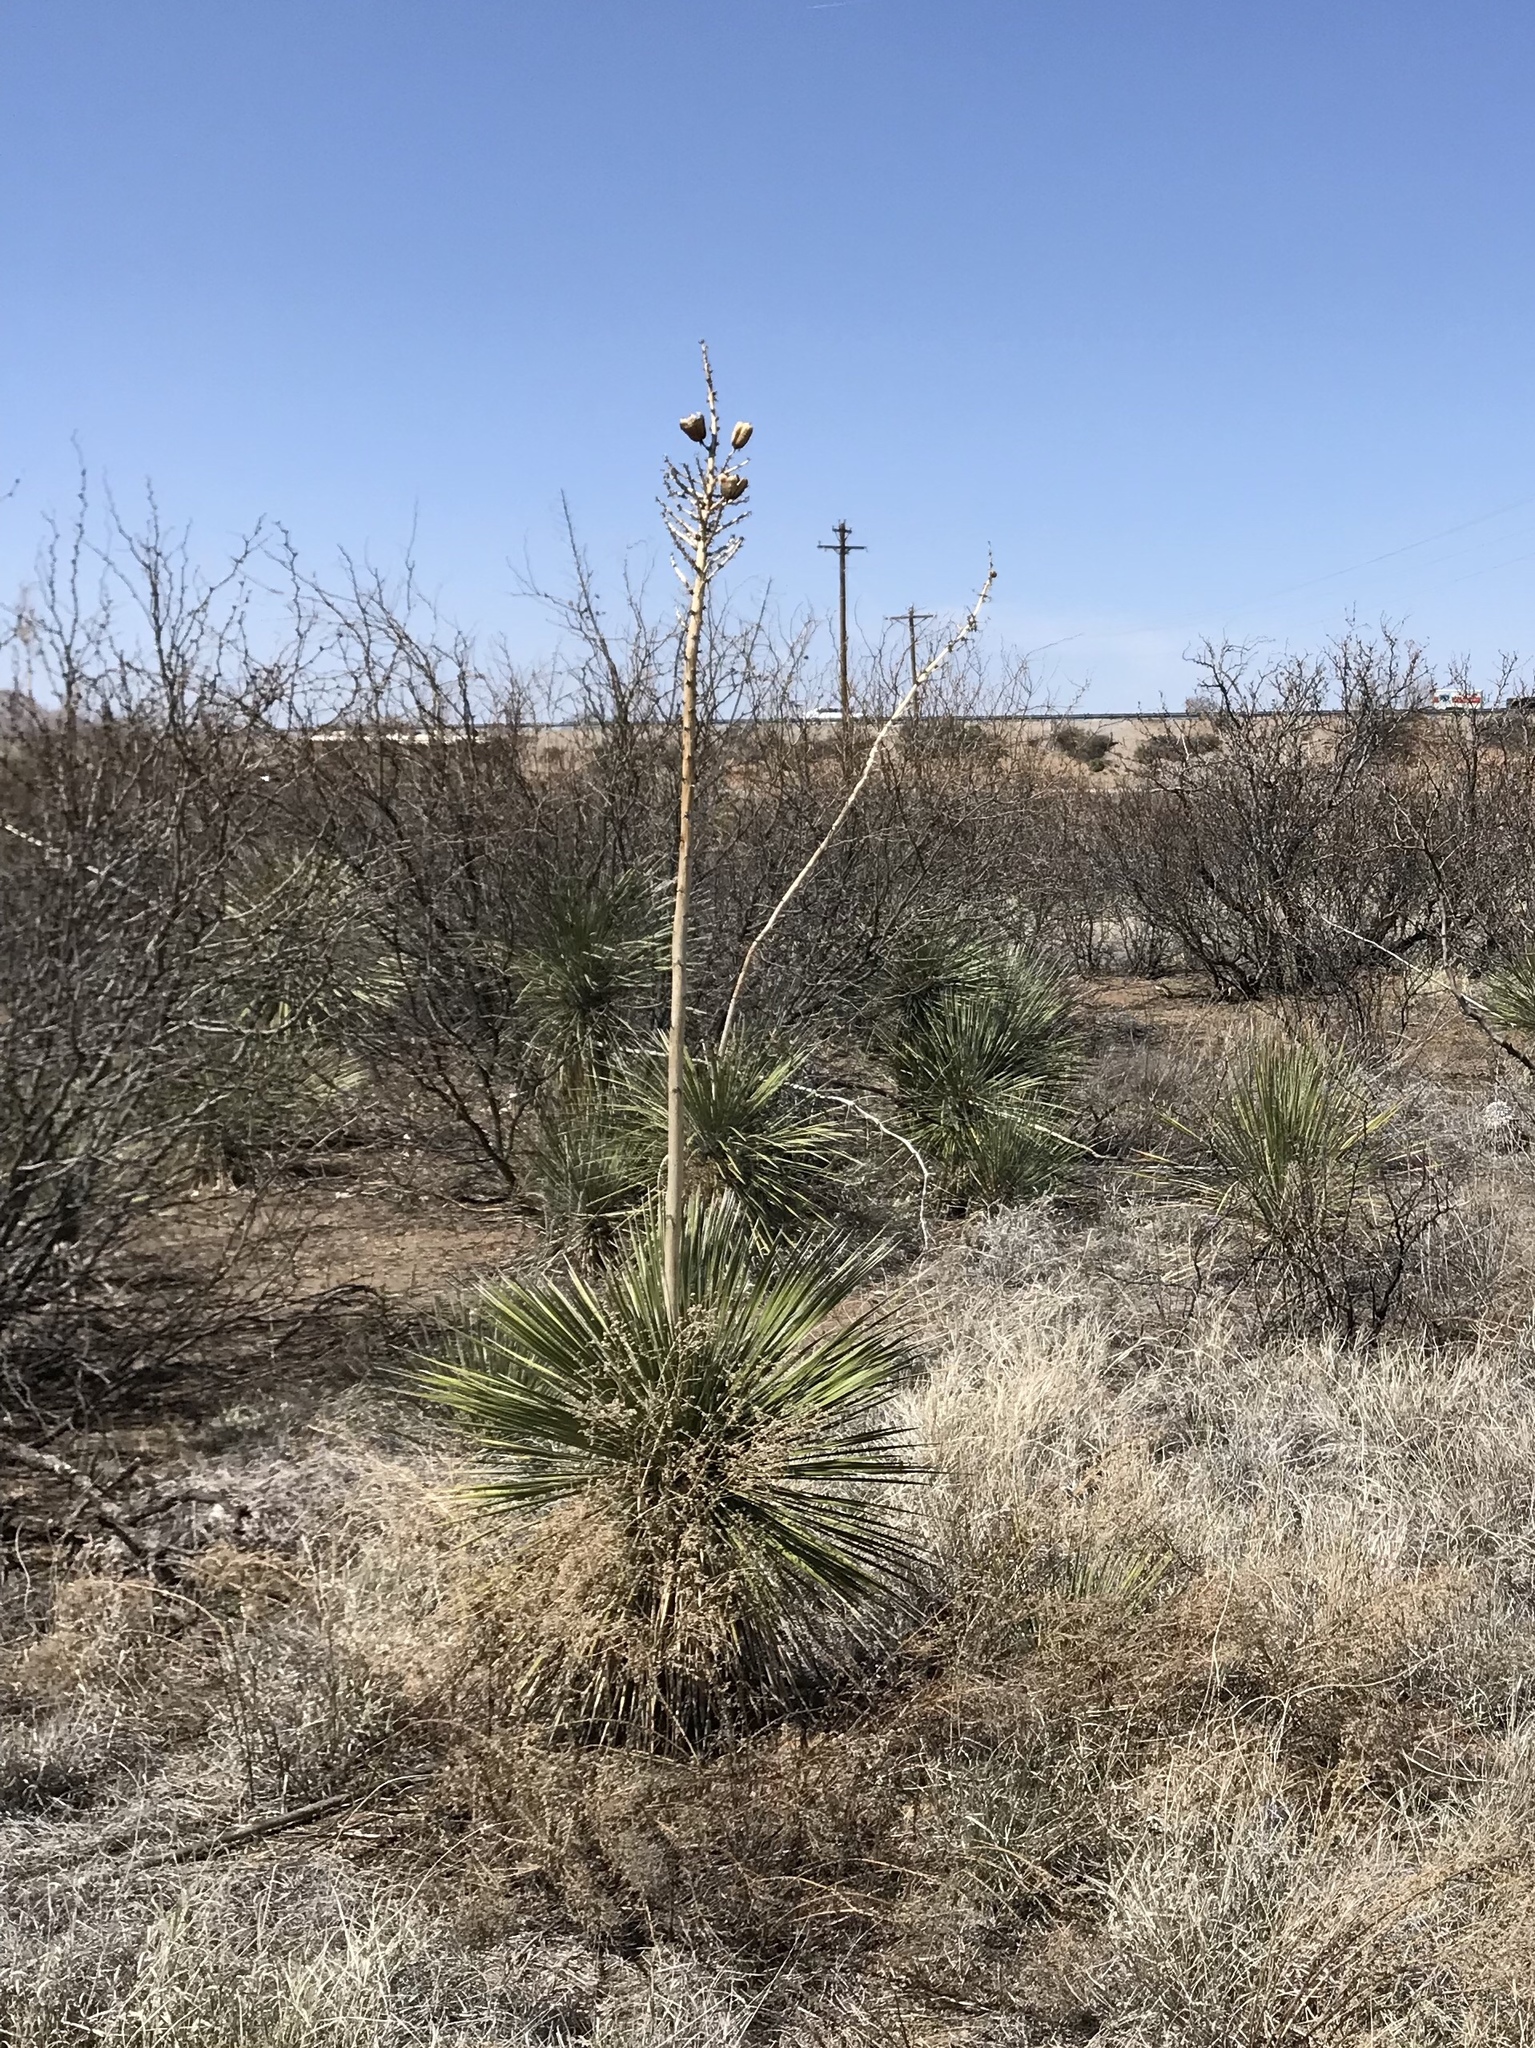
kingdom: Plantae
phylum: Tracheophyta
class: Liliopsida
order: Asparagales
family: Asparagaceae
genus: Yucca
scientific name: Yucca elata
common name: Palmella
